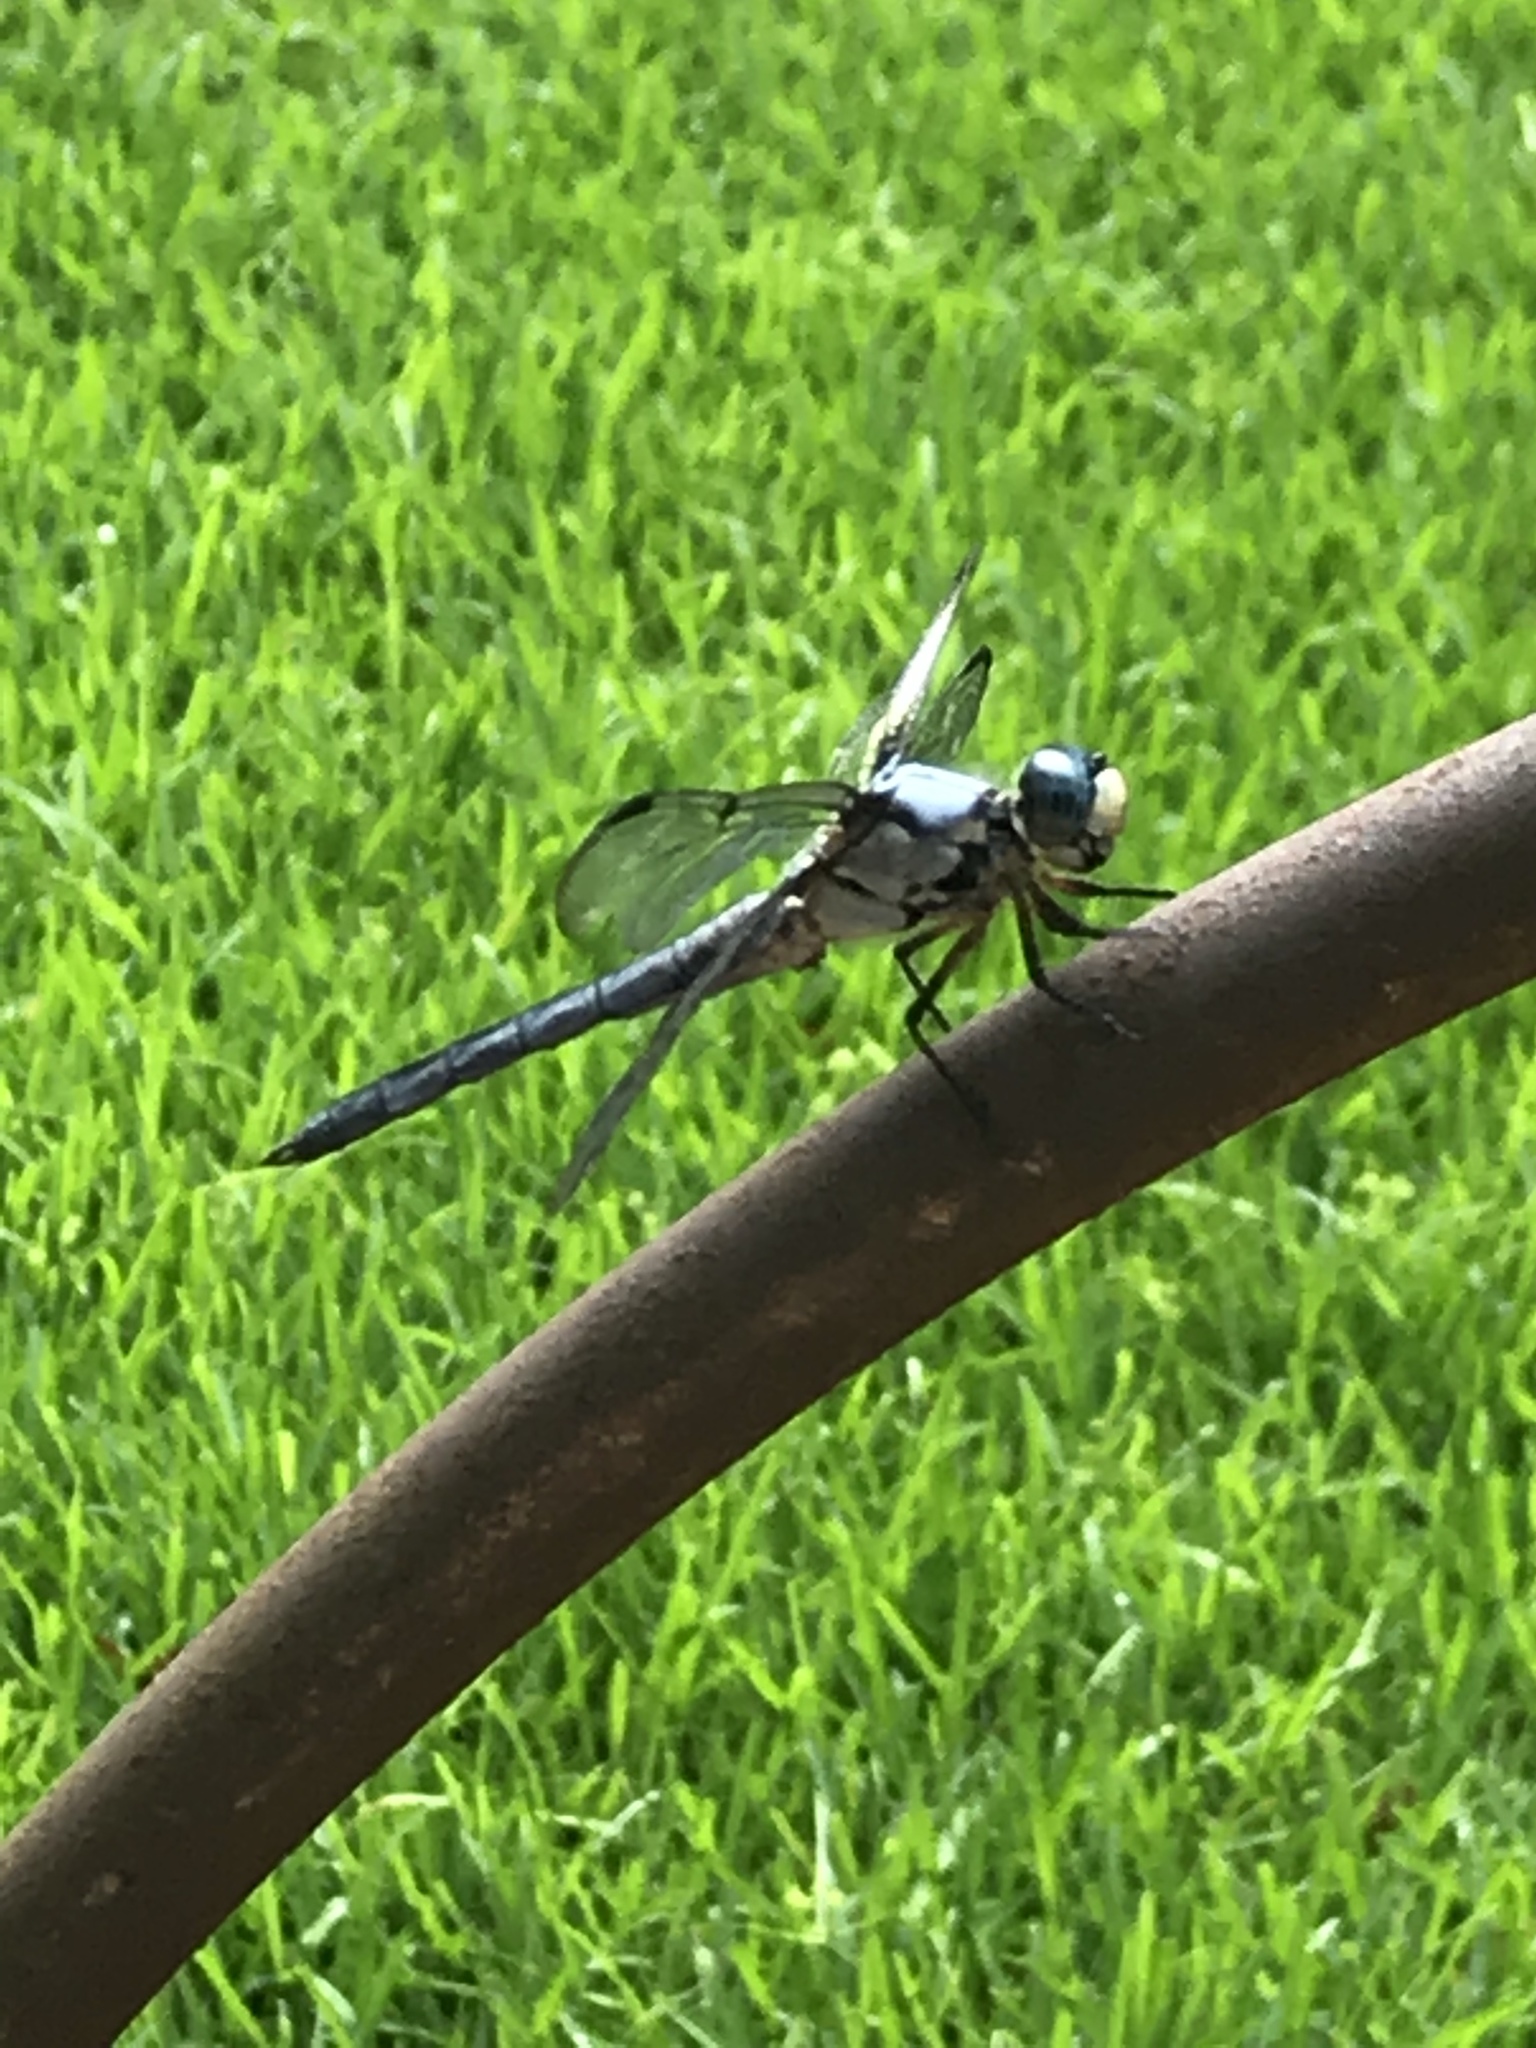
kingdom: Animalia
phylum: Arthropoda
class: Insecta
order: Odonata
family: Libellulidae
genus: Libellula
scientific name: Libellula vibrans
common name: Great blue skimmer
